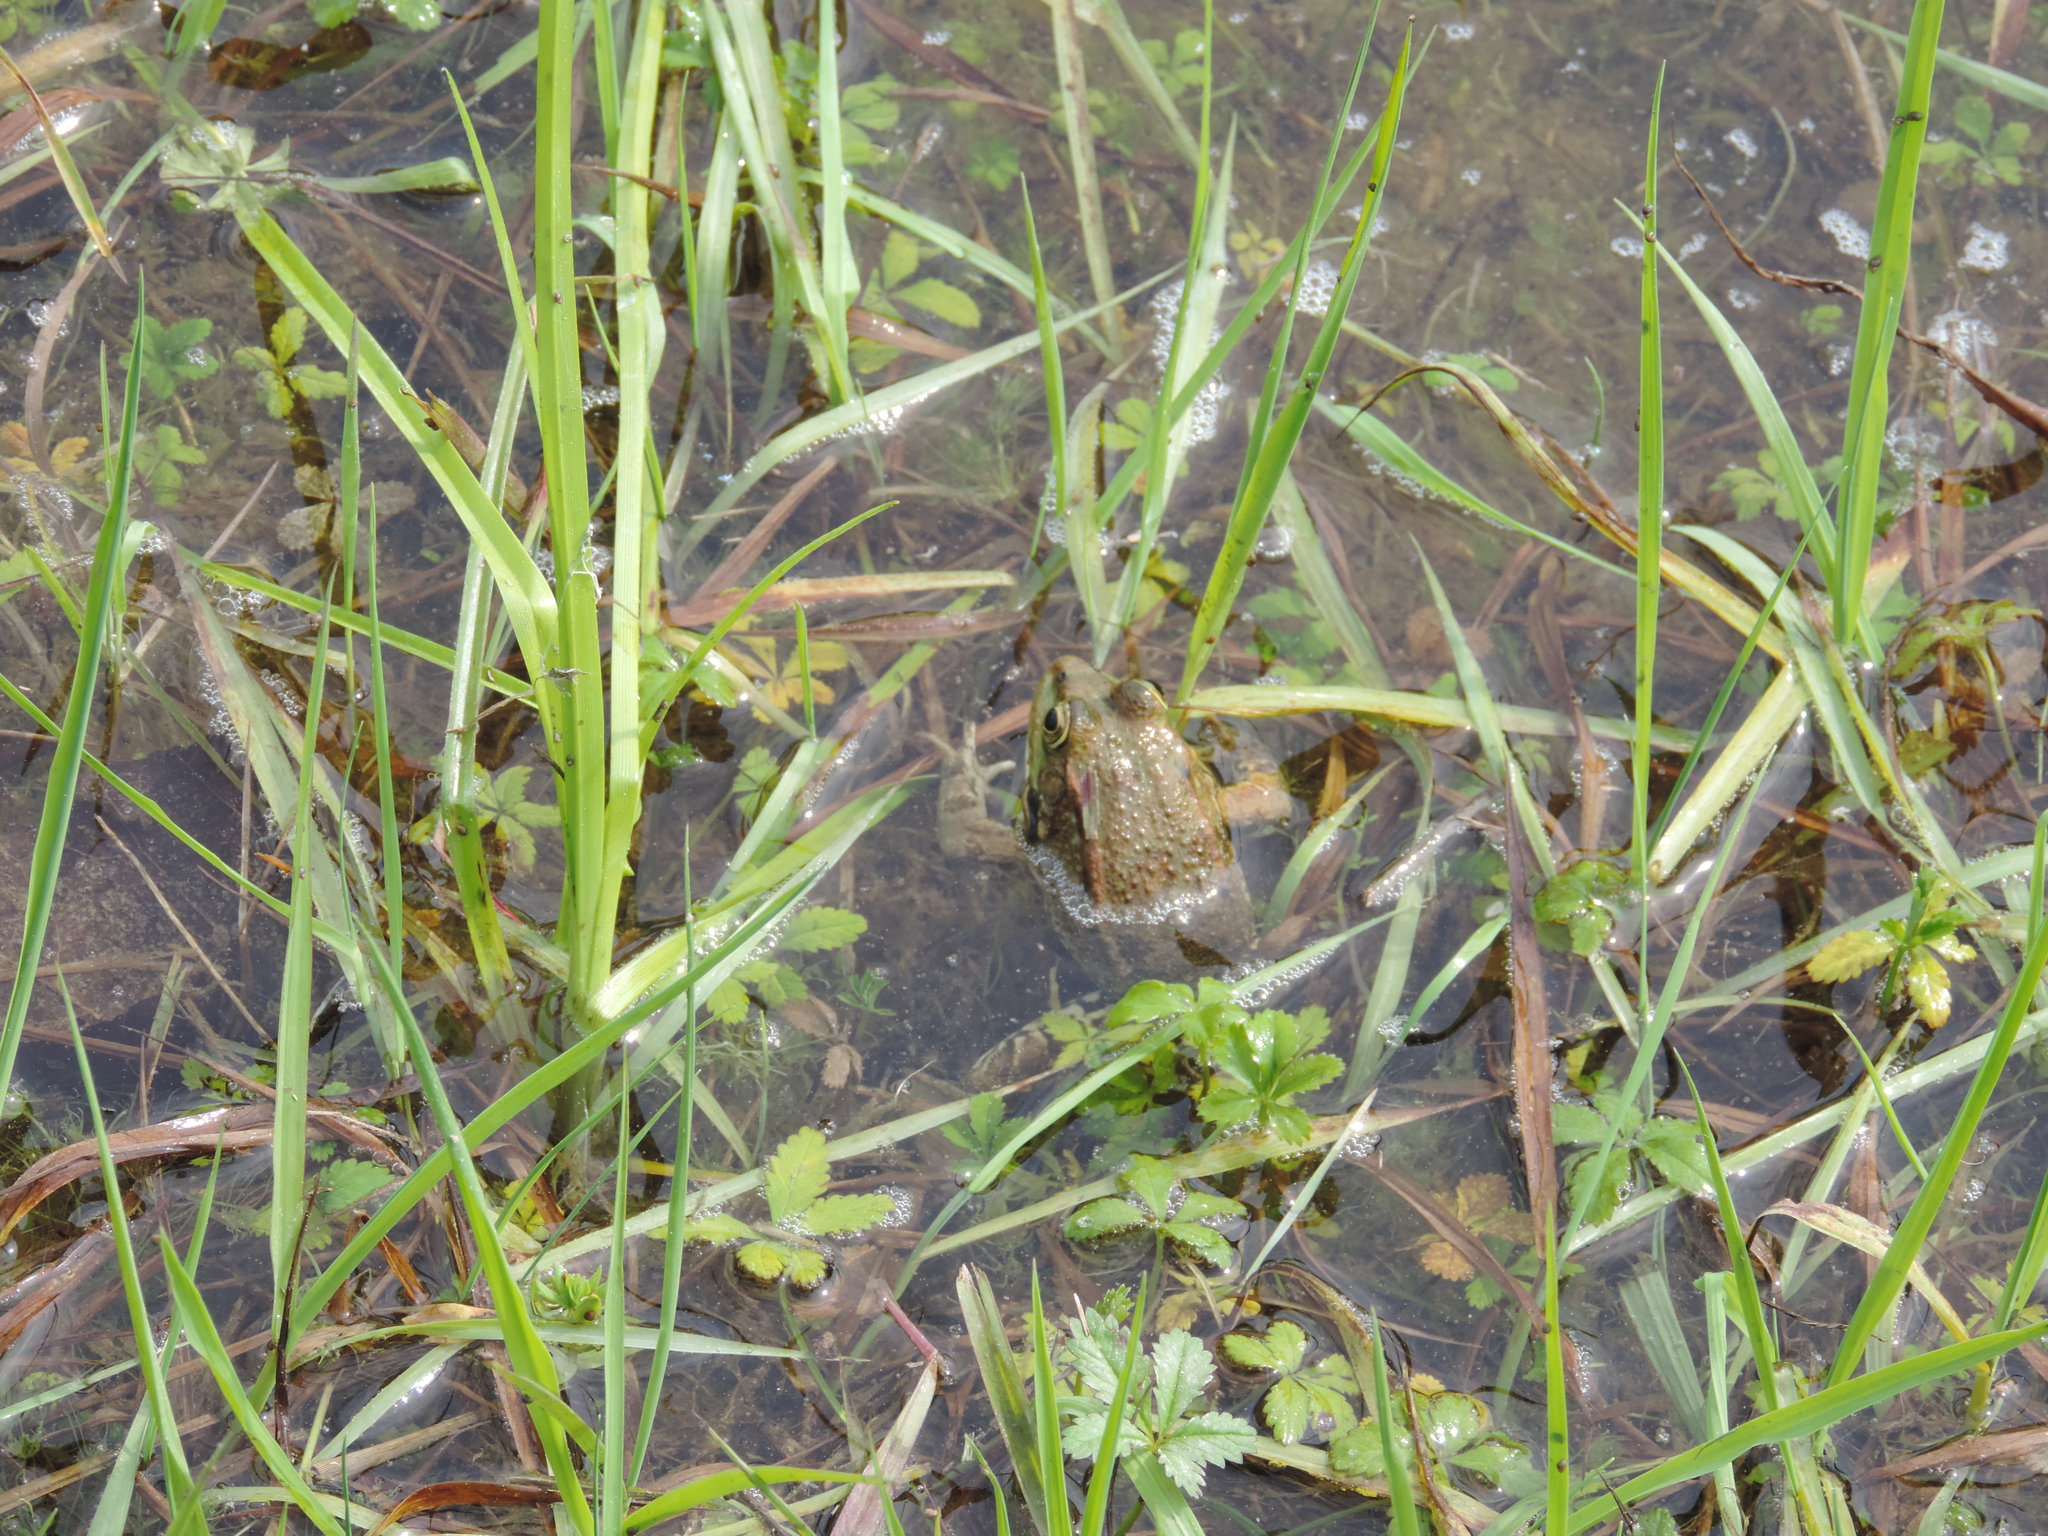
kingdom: Animalia
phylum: Chordata
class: Amphibia
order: Anura
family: Ranidae
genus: Pelophylax
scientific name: Pelophylax ridibundus
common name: Marsh frog
